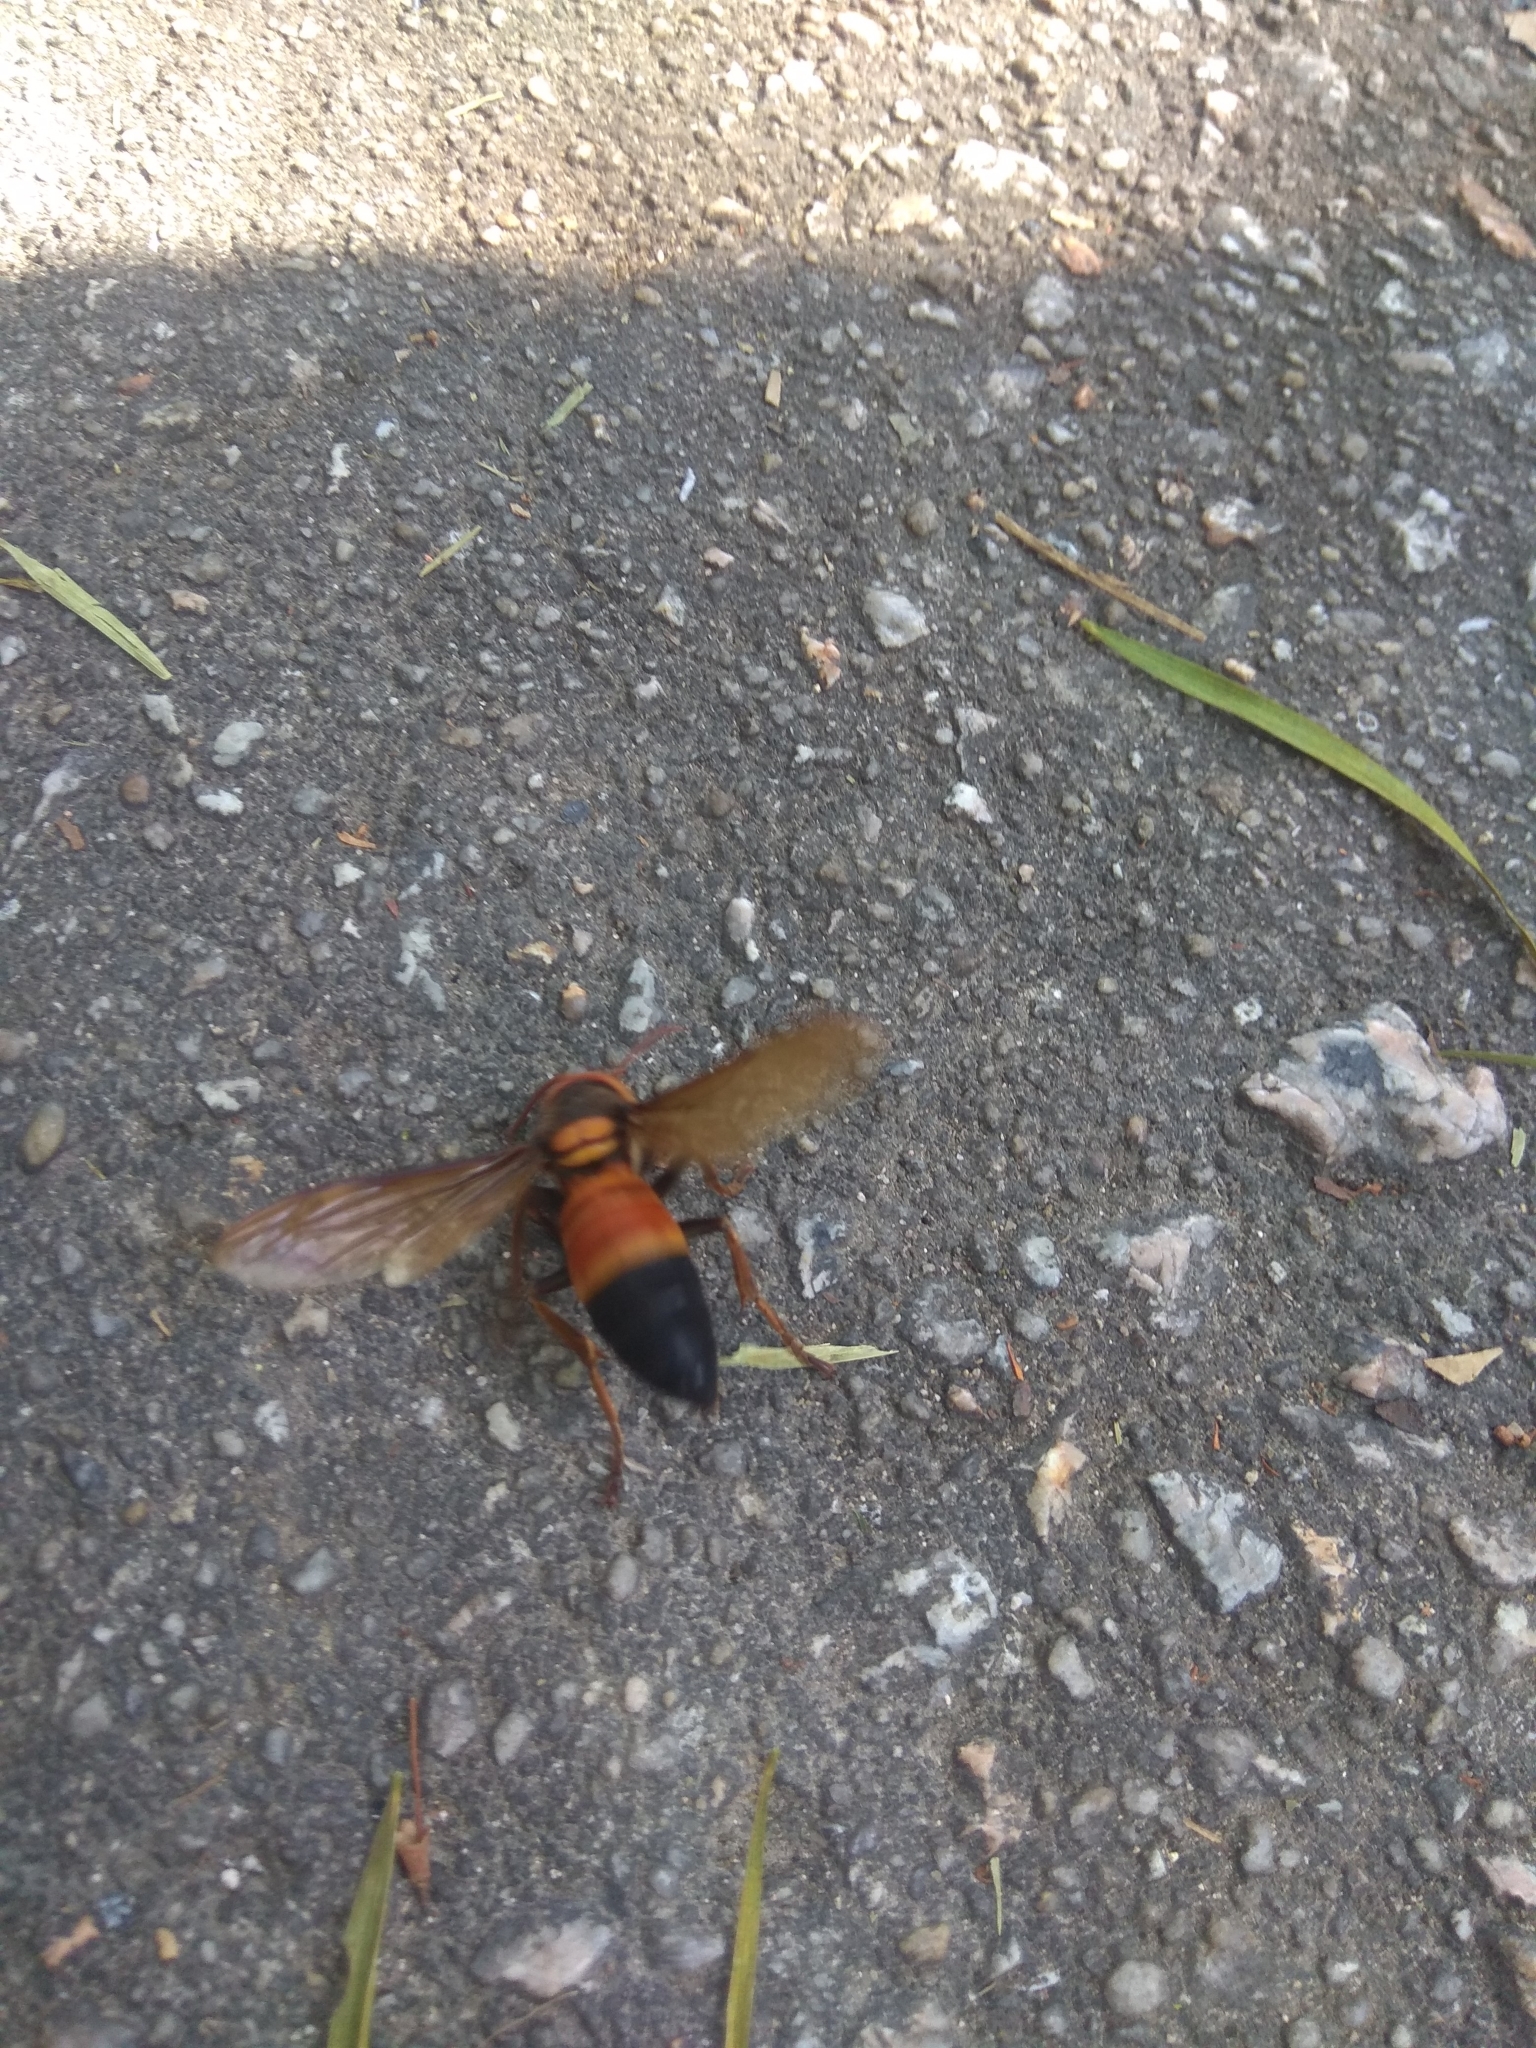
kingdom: Animalia
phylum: Arthropoda
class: Insecta
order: Hymenoptera
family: Vespidae
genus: Vespa
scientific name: Vespa soror
